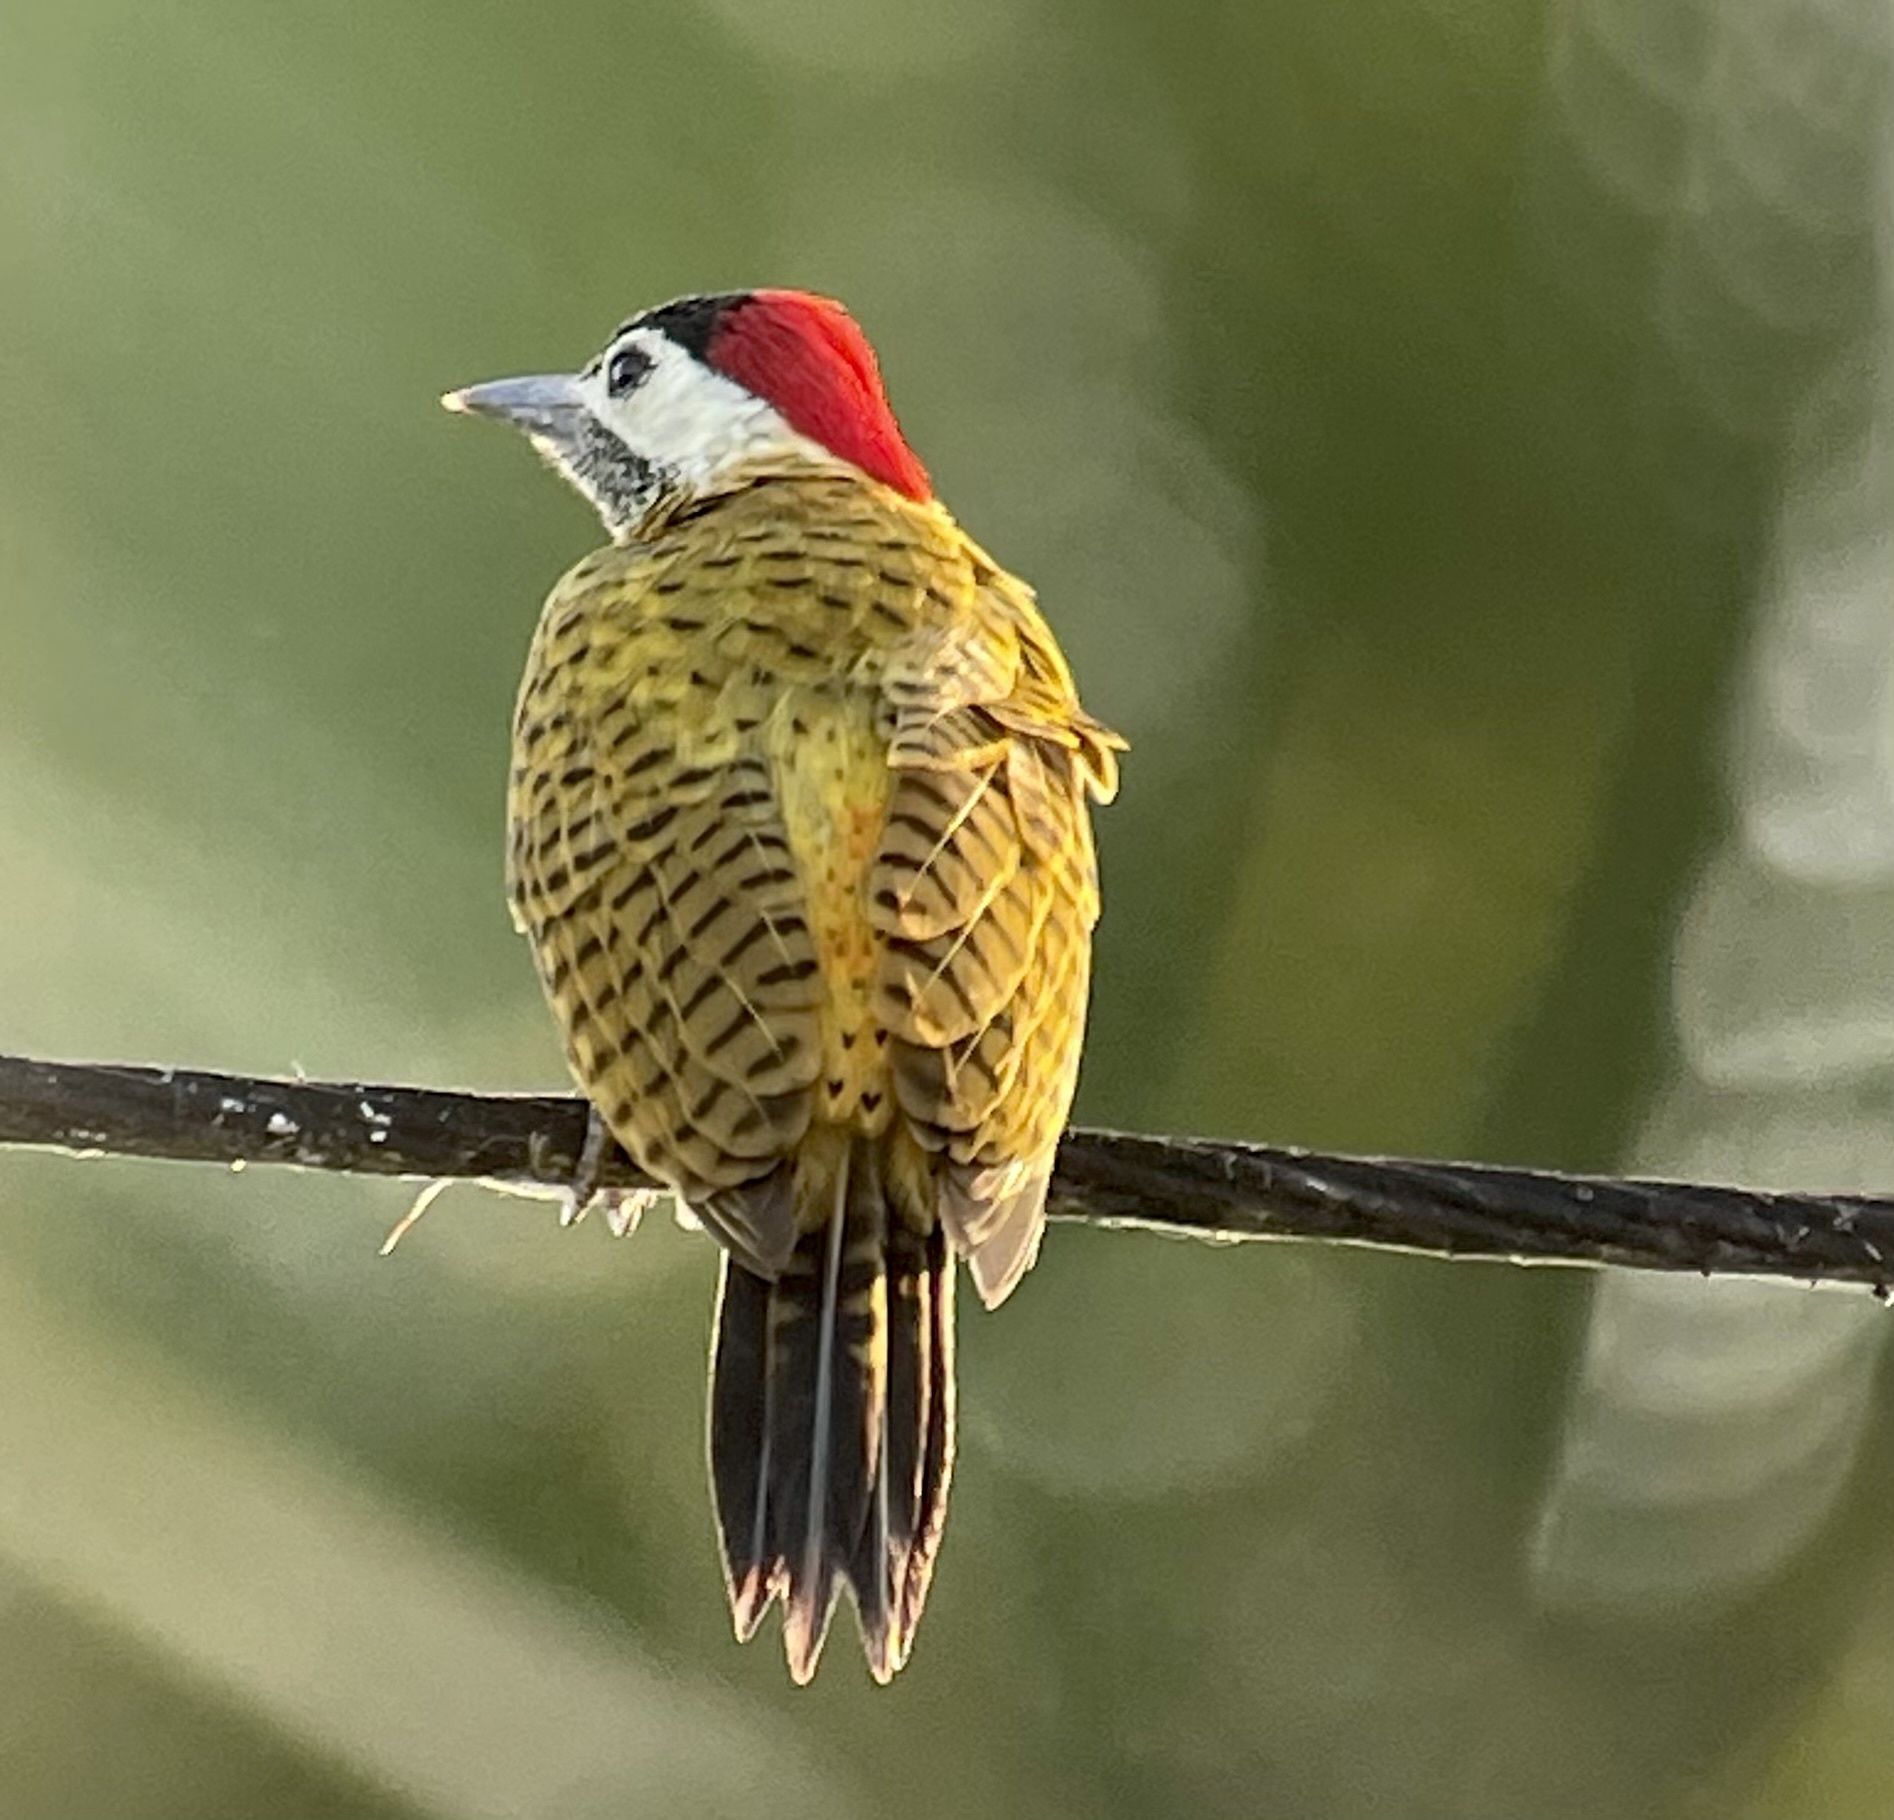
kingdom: Animalia
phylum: Chordata
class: Aves
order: Piciformes
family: Picidae
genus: Colaptes
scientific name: Colaptes punctigula
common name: Spot-breasted woodpecker
